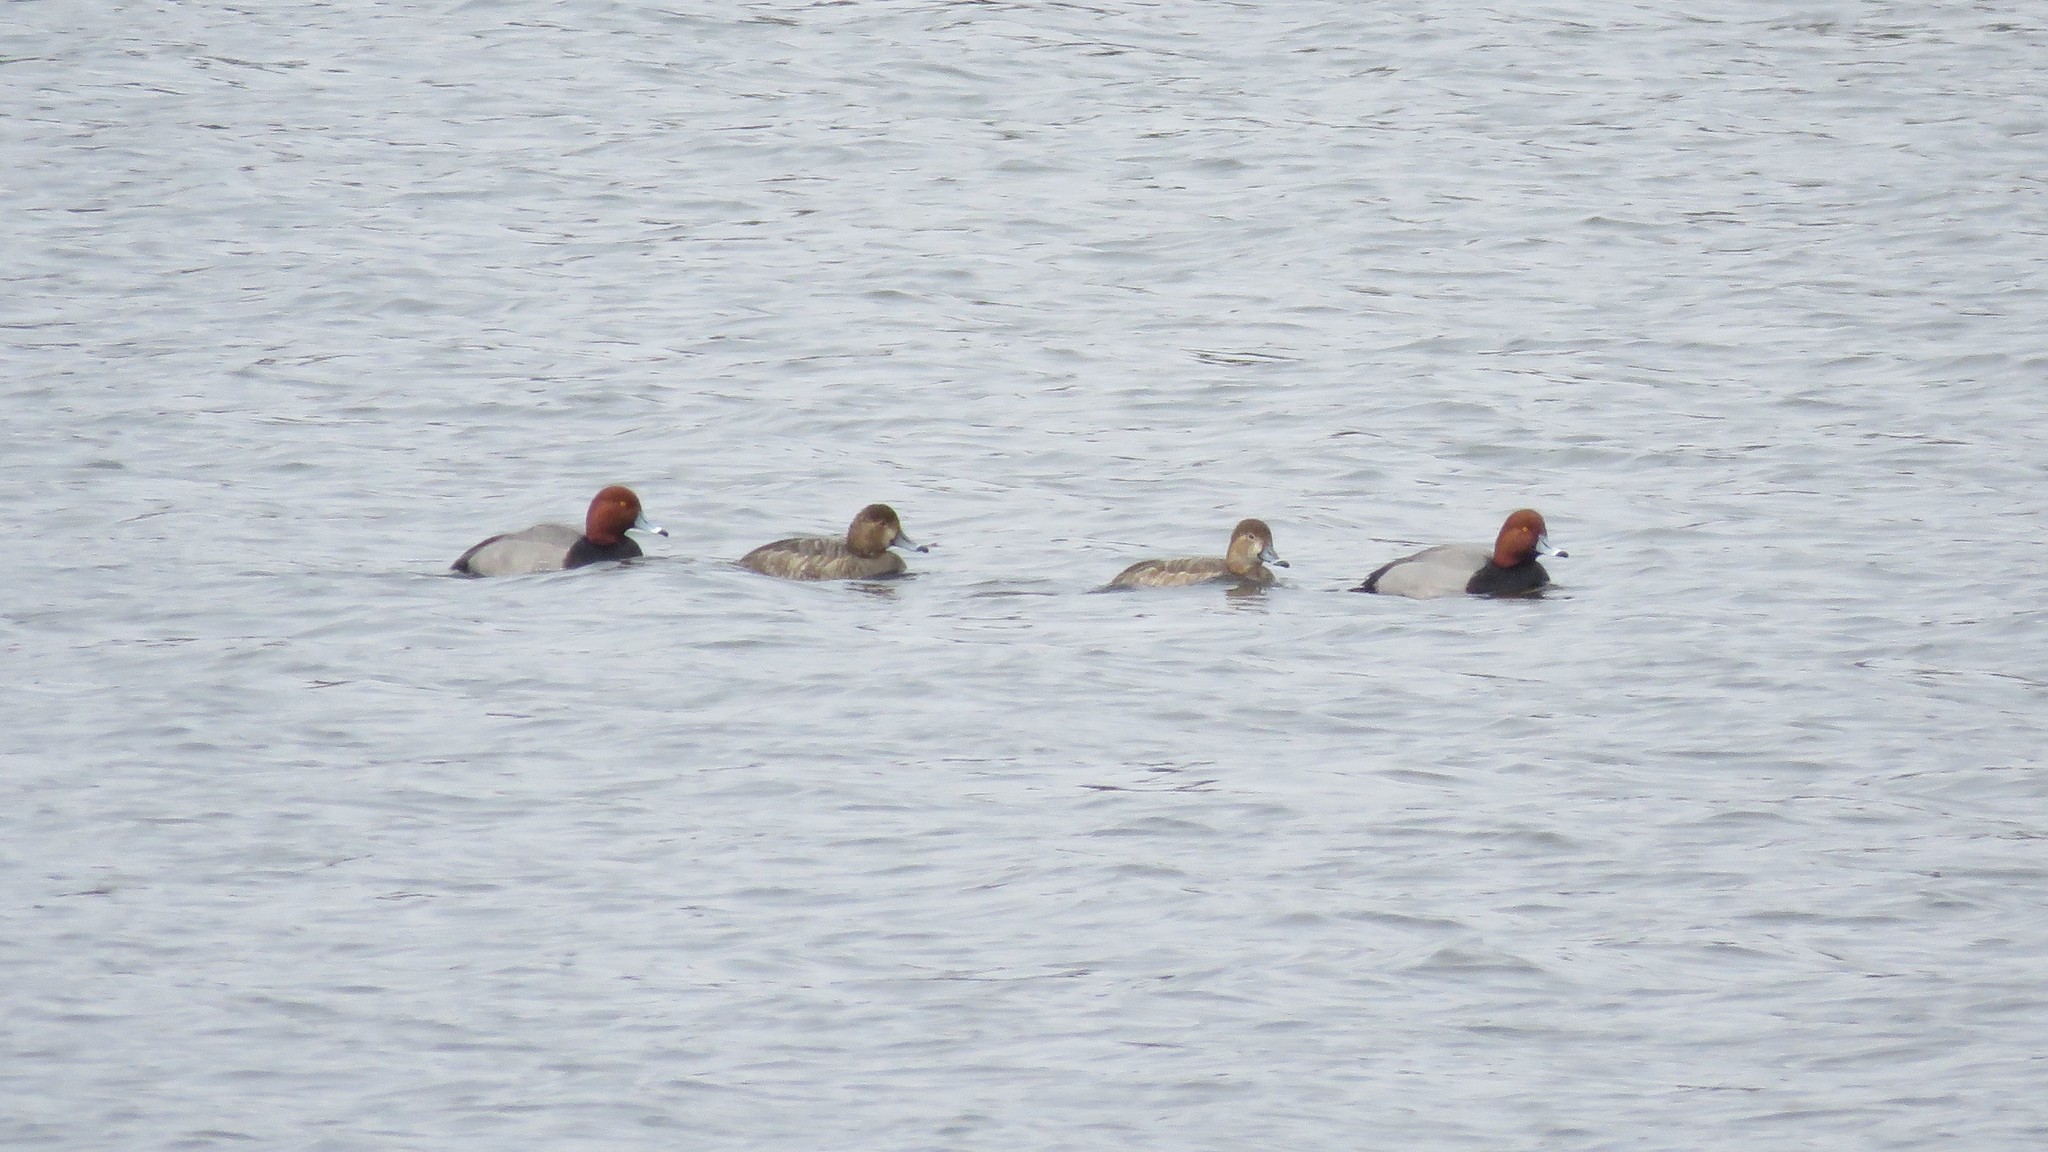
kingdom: Animalia
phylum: Chordata
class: Aves
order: Anseriformes
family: Anatidae
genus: Aythya
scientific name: Aythya americana
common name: Redhead
